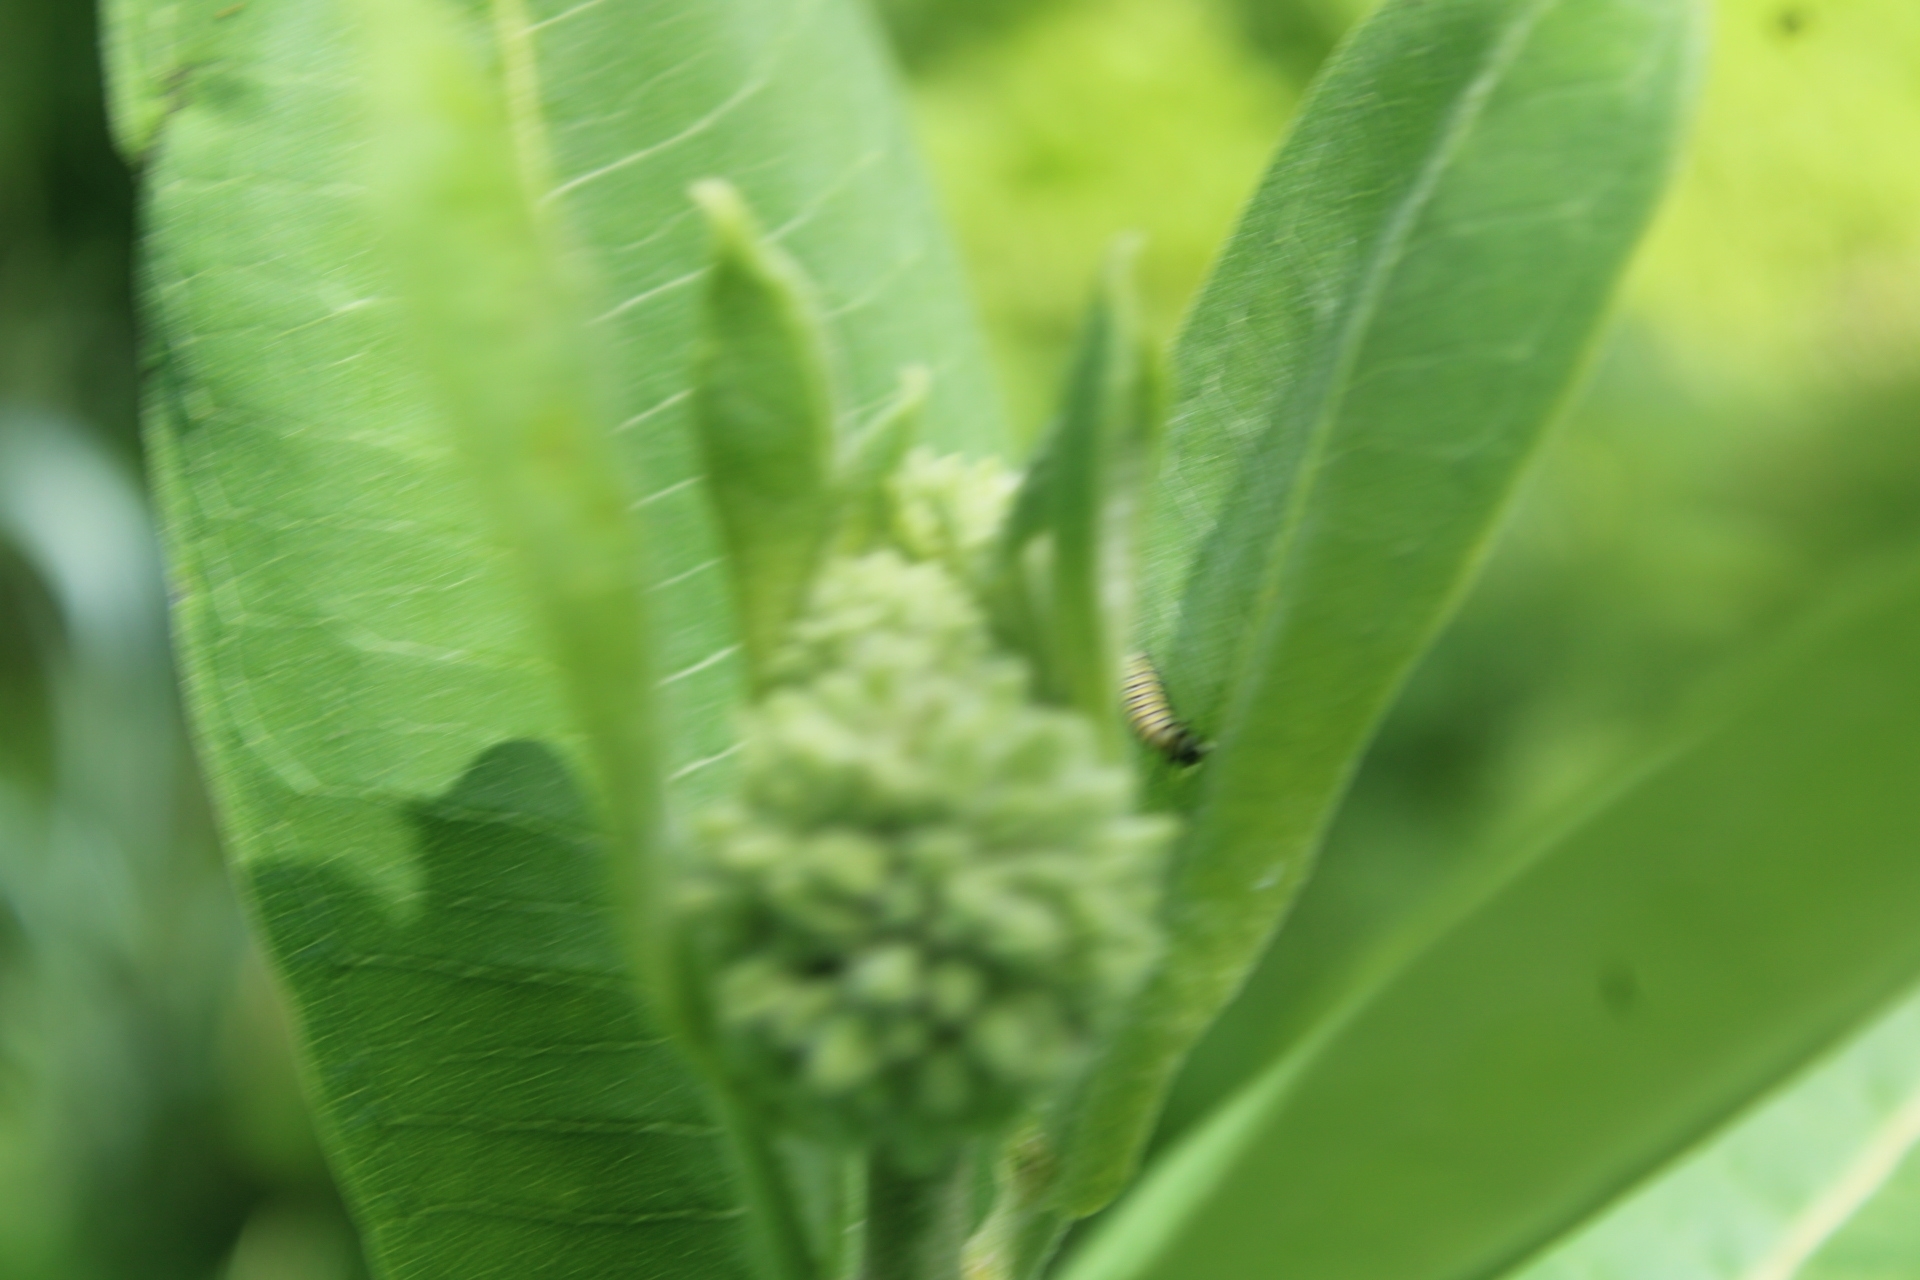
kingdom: Animalia
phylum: Arthropoda
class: Insecta
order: Lepidoptera
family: Nymphalidae
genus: Danaus
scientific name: Danaus plexippus
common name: Monarch
